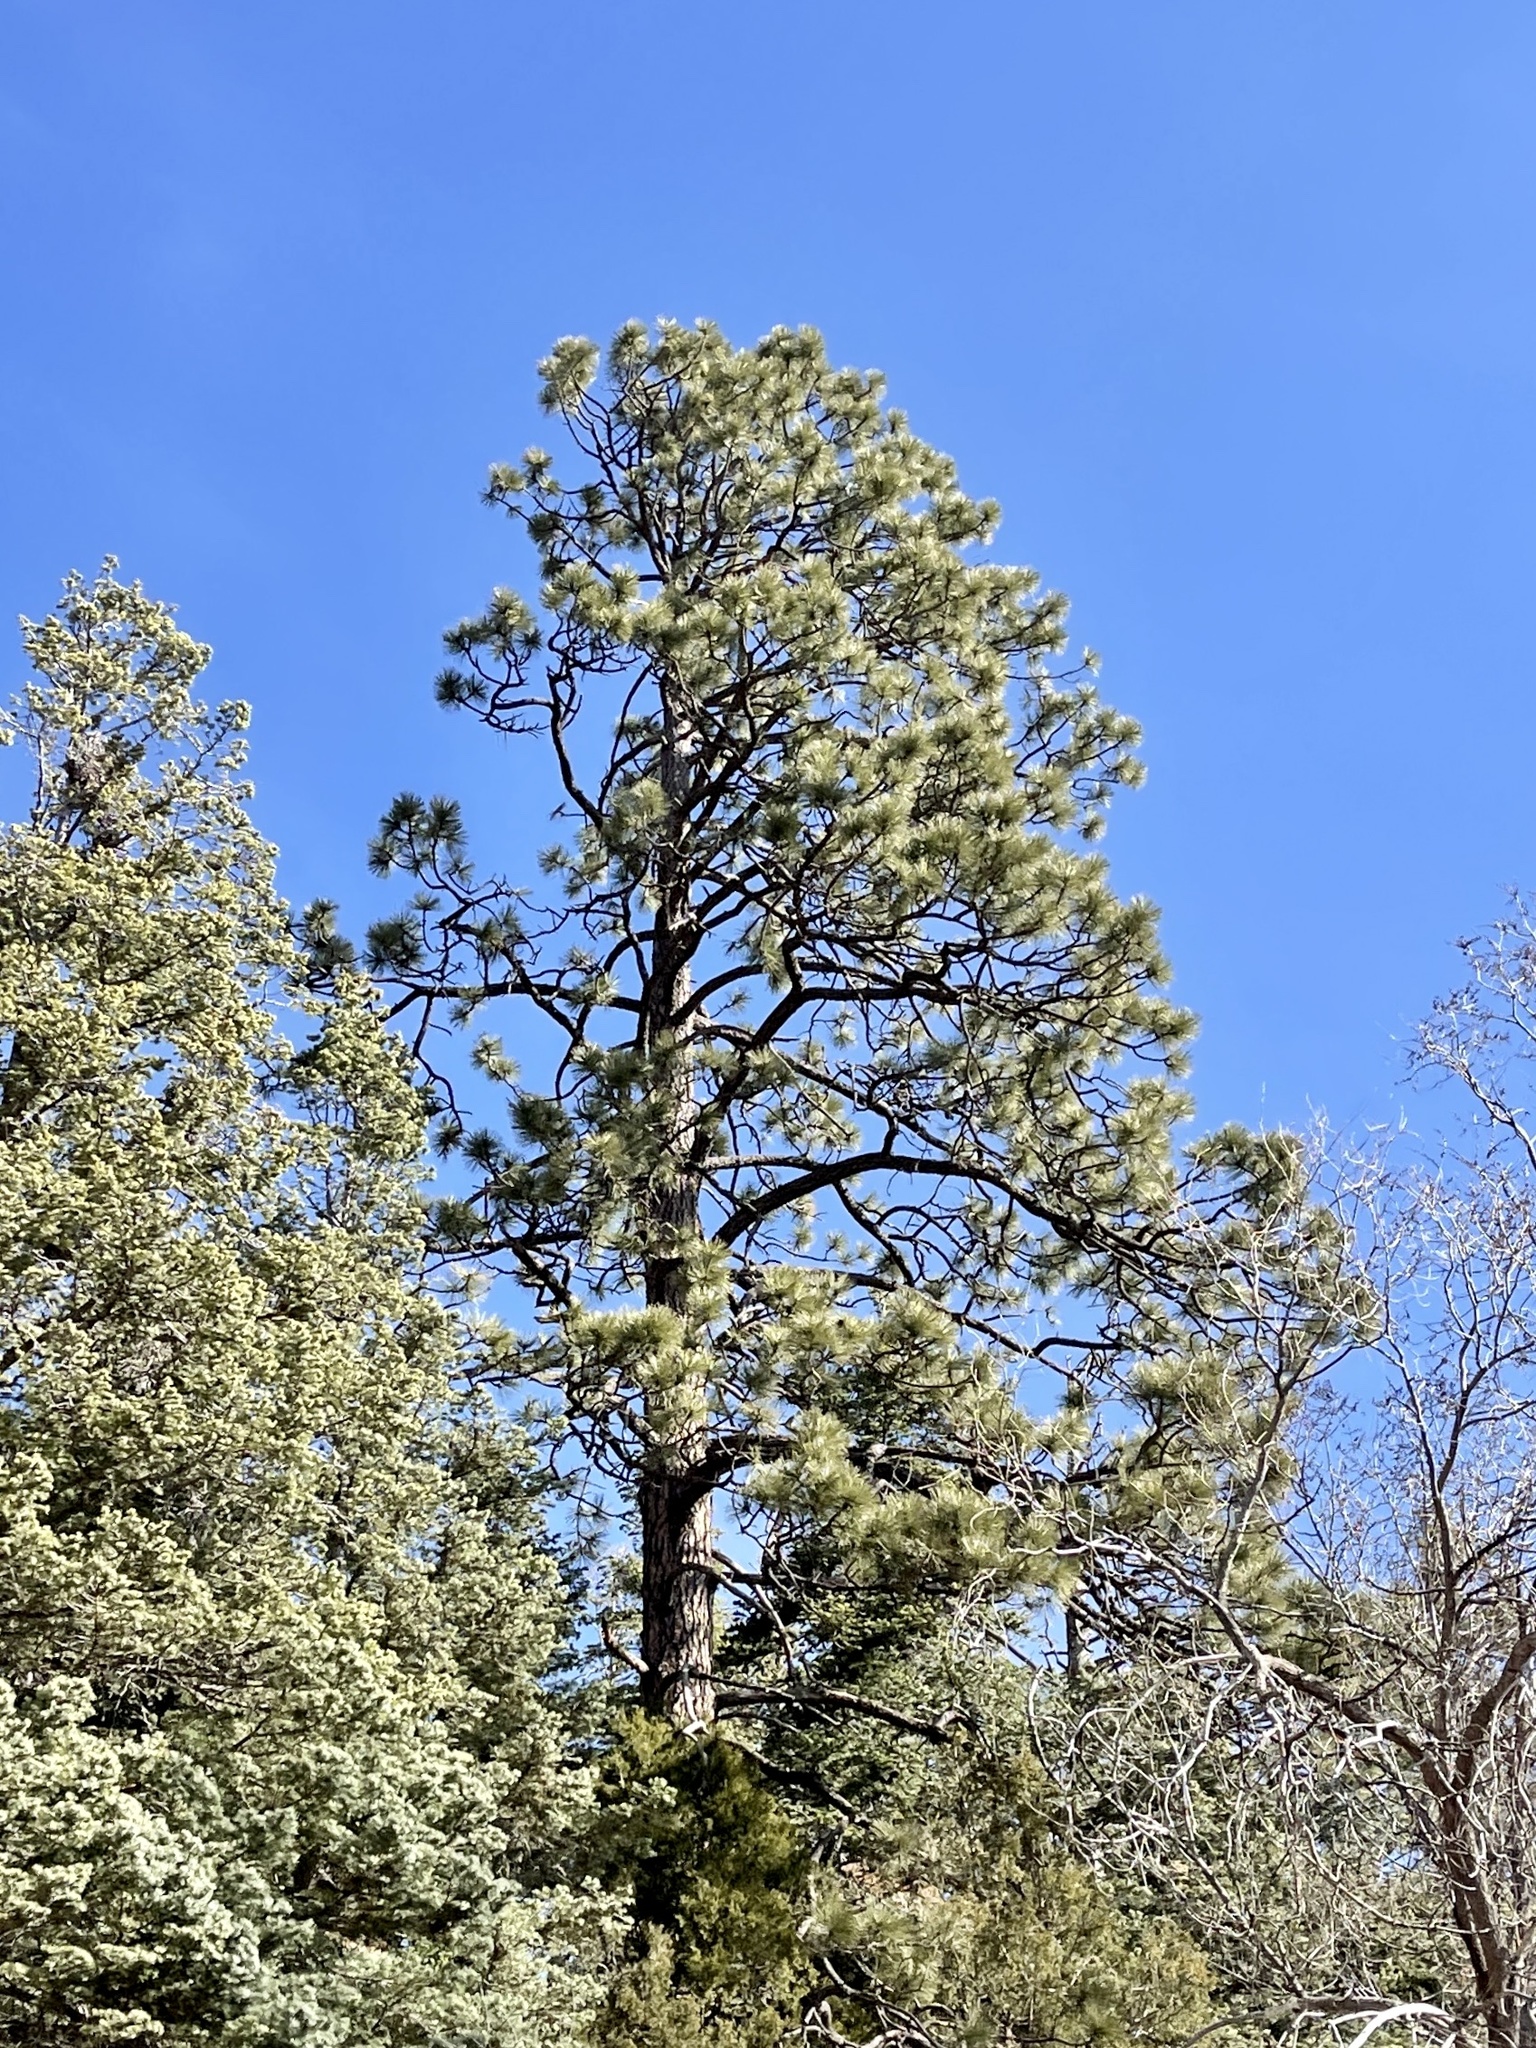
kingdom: Plantae
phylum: Tracheophyta
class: Pinopsida
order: Pinales
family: Pinaceae
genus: Pinus
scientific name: Pinus ponderosa
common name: Western yellow-pine
